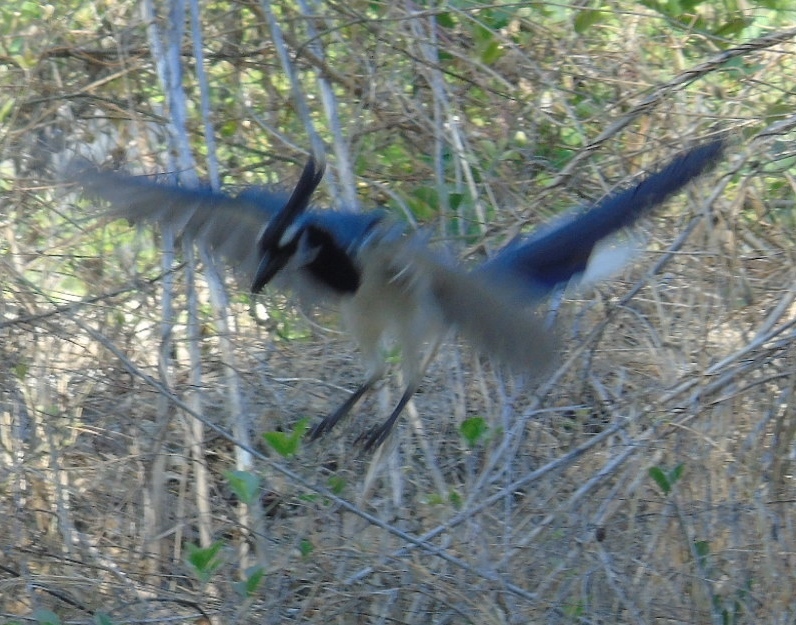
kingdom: Animalia
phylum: Chordata
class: Aves
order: Passeriformes
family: Corvidae
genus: Calocitta
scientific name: Calocitta colliei
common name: Black-throated magpie-jay
